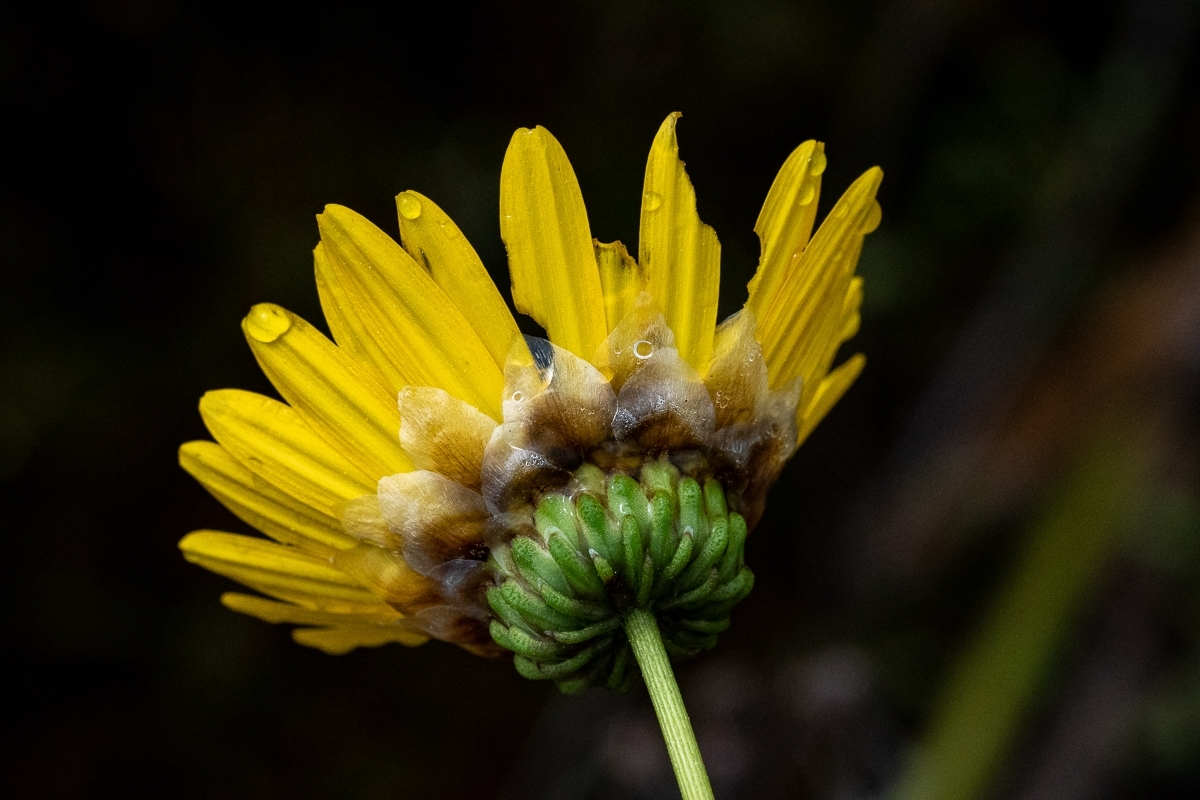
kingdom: Plantae
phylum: Tracheophyta
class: Magnoliopsida
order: Asterales
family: Asteraceae
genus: Ursinia
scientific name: Ursinia paleacea
